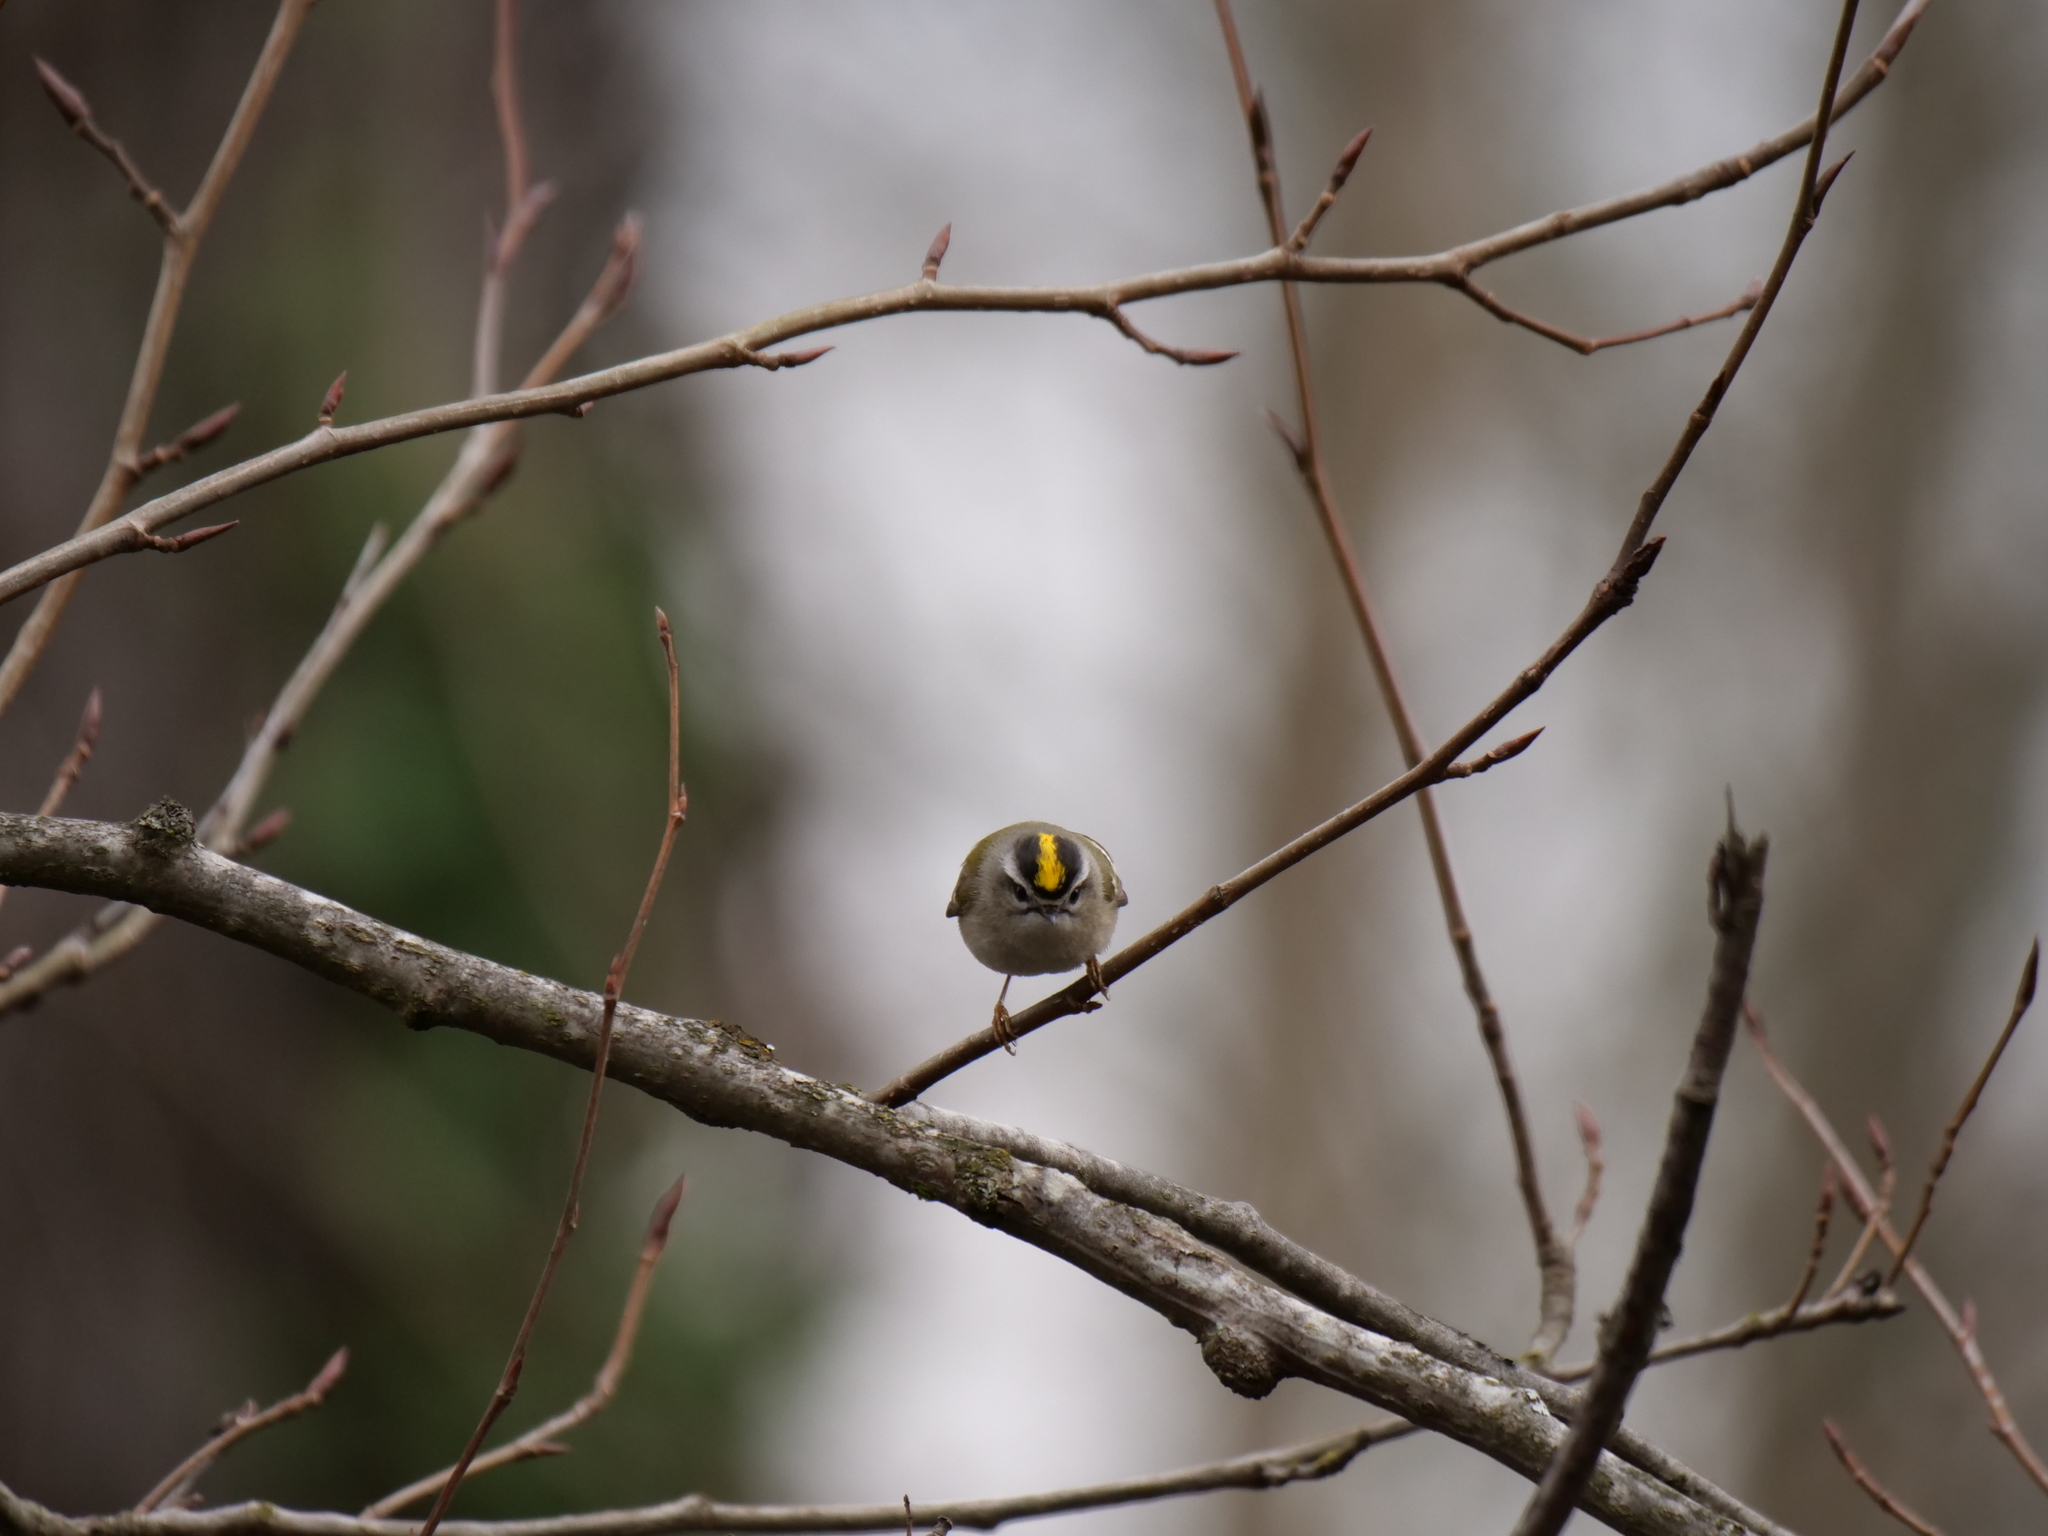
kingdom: Animalia
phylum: Chordata
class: Aves
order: Passeriformes
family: Regulidae
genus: Regulus
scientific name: Regulus satrapa
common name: Golden-crowned kinglet
